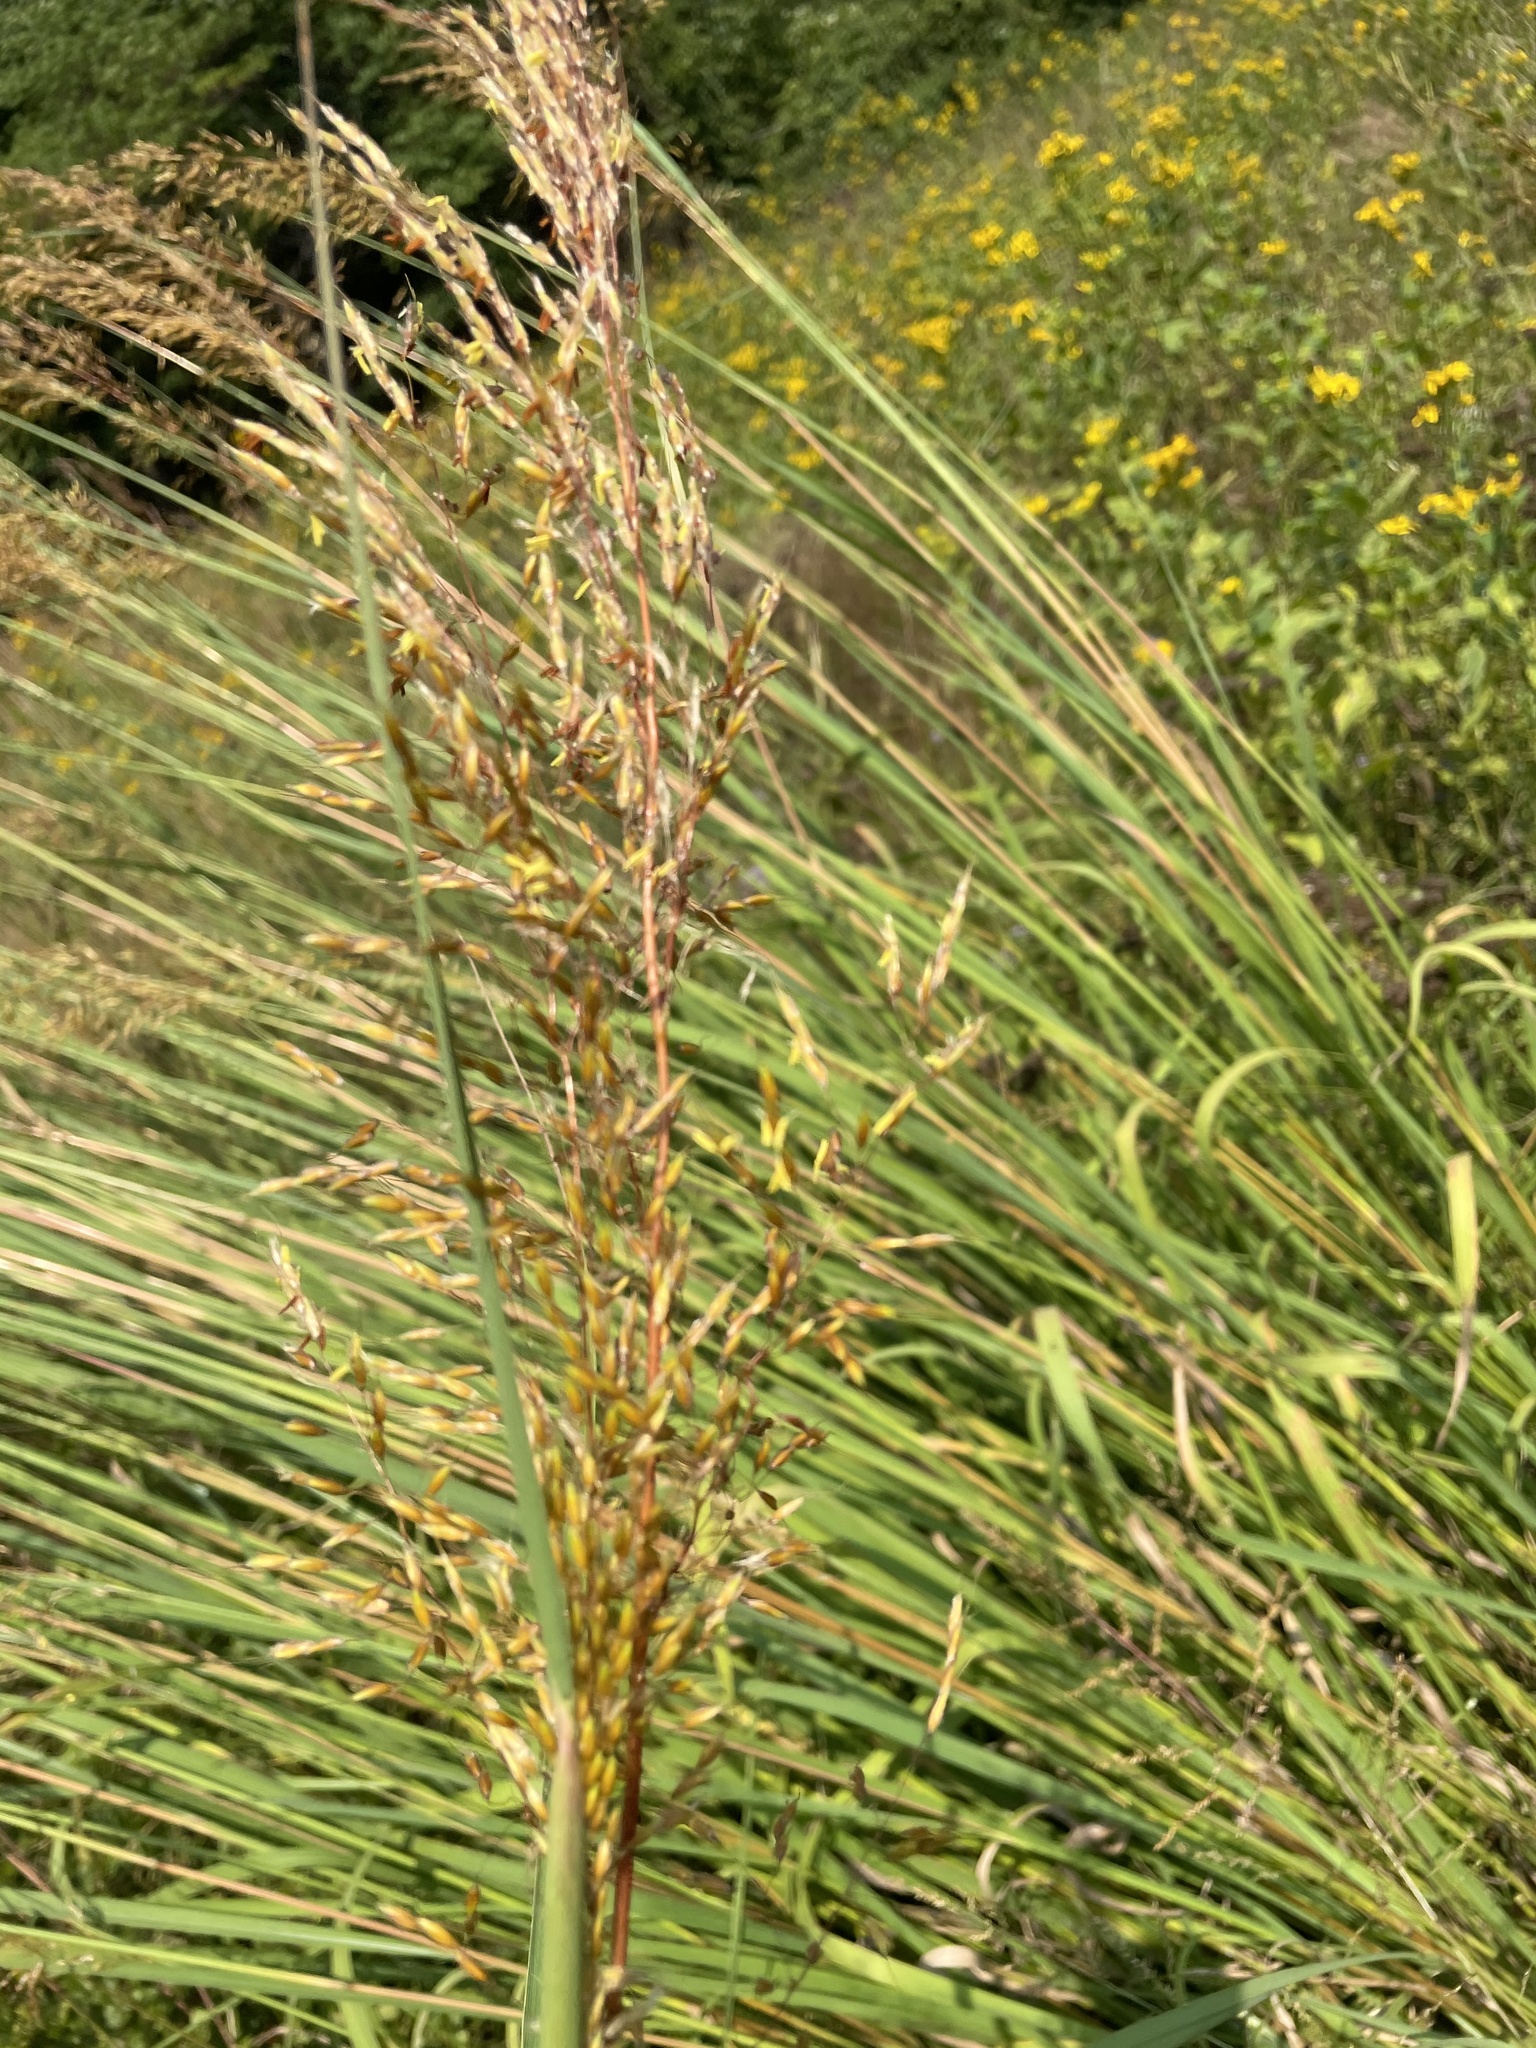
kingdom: Plantae
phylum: Tracheophyta
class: Liliopsida
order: Poales
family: Poaceae
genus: Sorghastrum
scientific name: Sorghastrum nutans
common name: Indian grass
